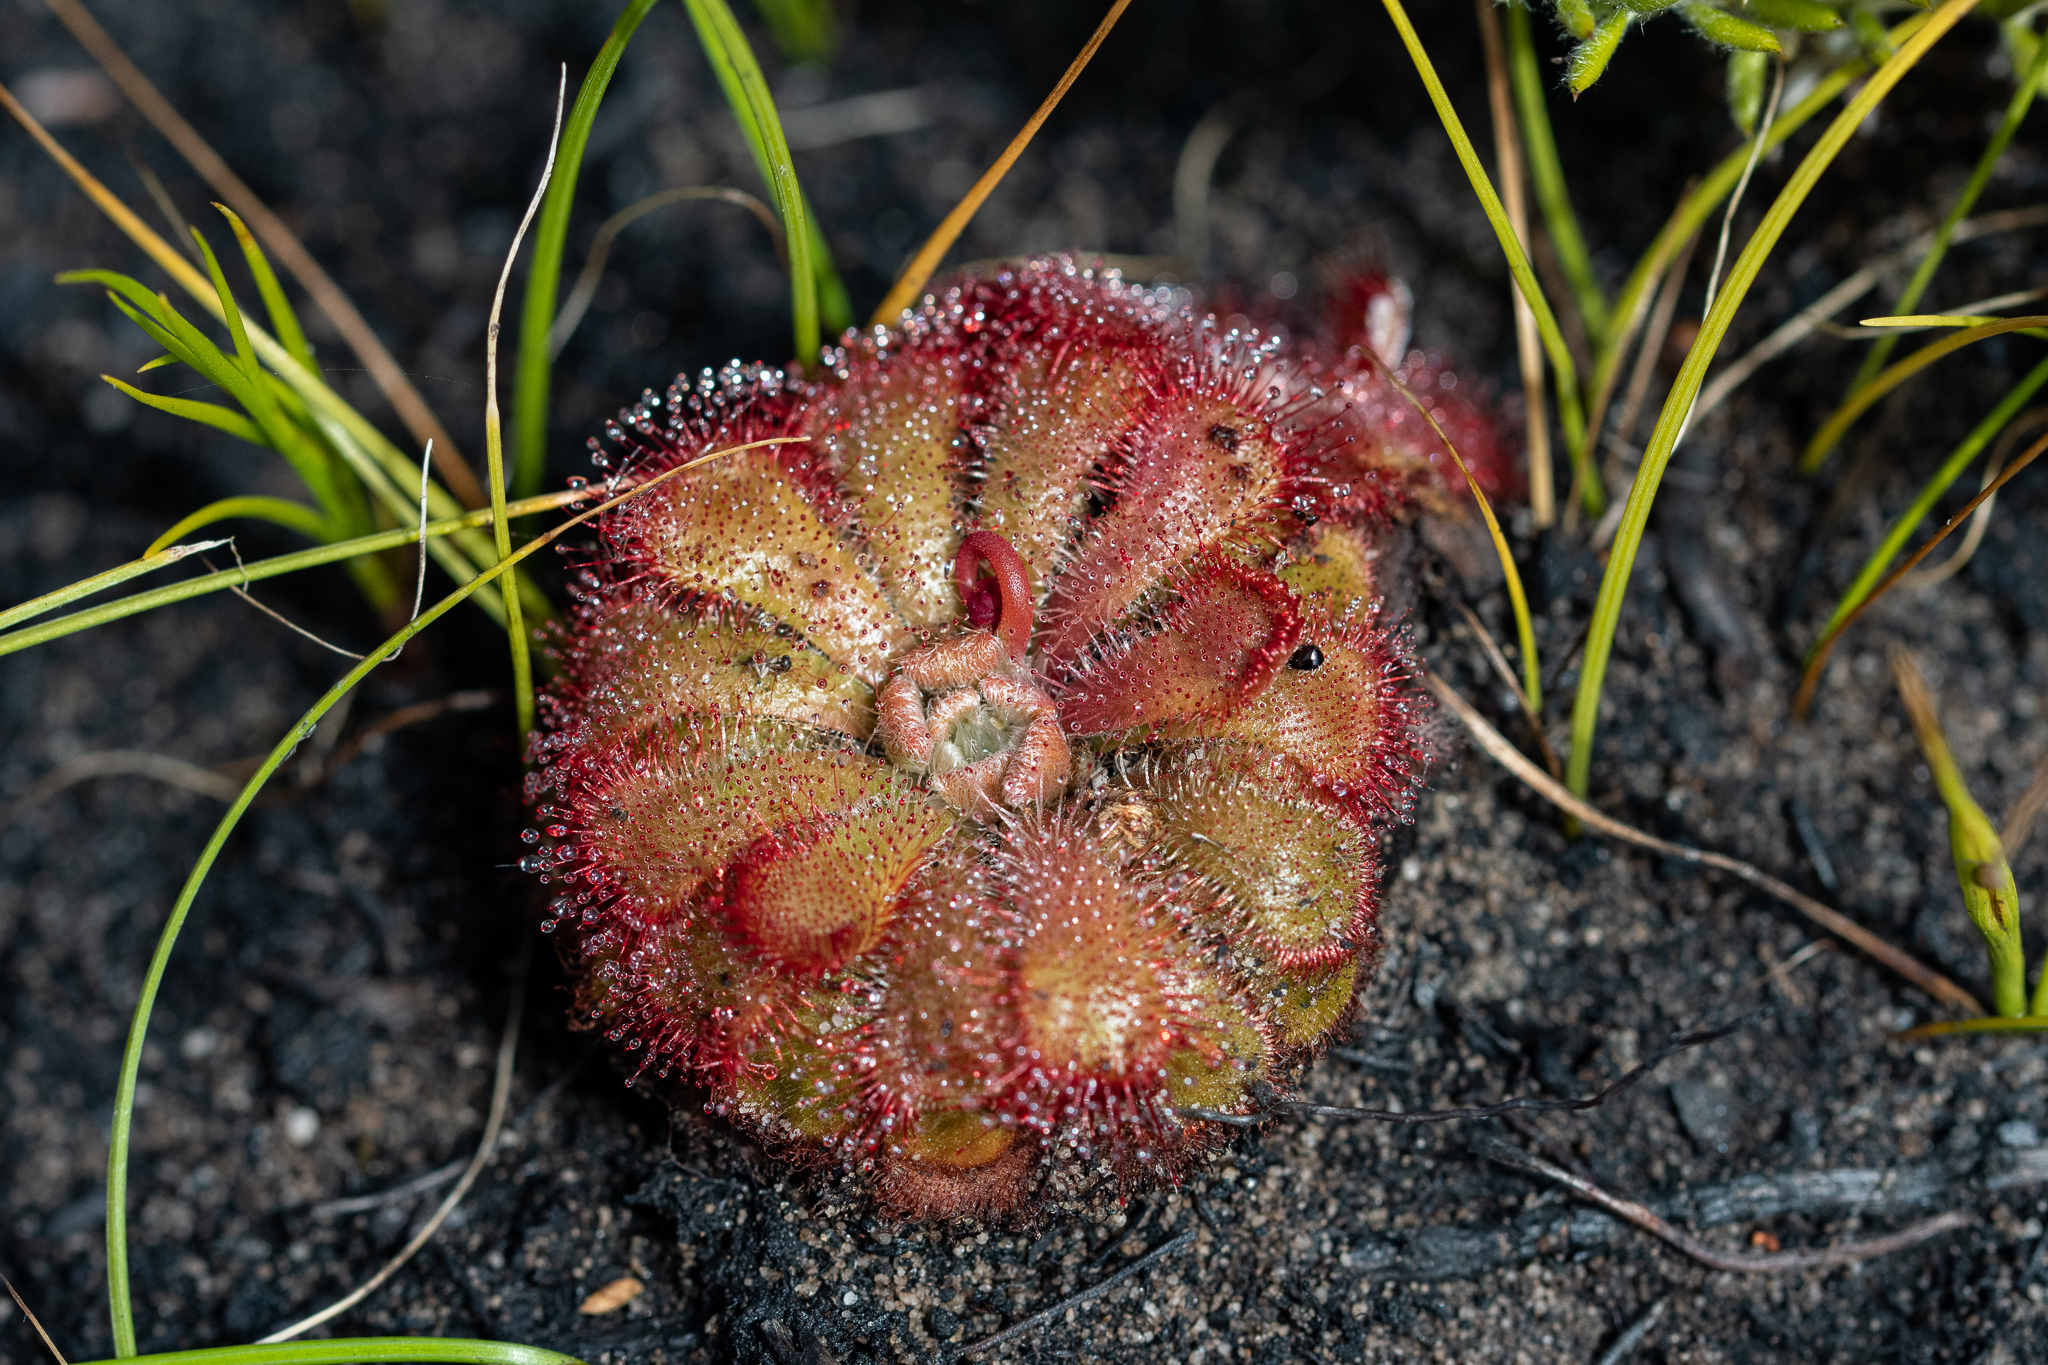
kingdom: Plantae
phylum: Tracheophyta
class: Magnoliopsida
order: Caryophyllales
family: Droseraceae
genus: Drosera
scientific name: Drosera aliciae
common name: Alice sundew
